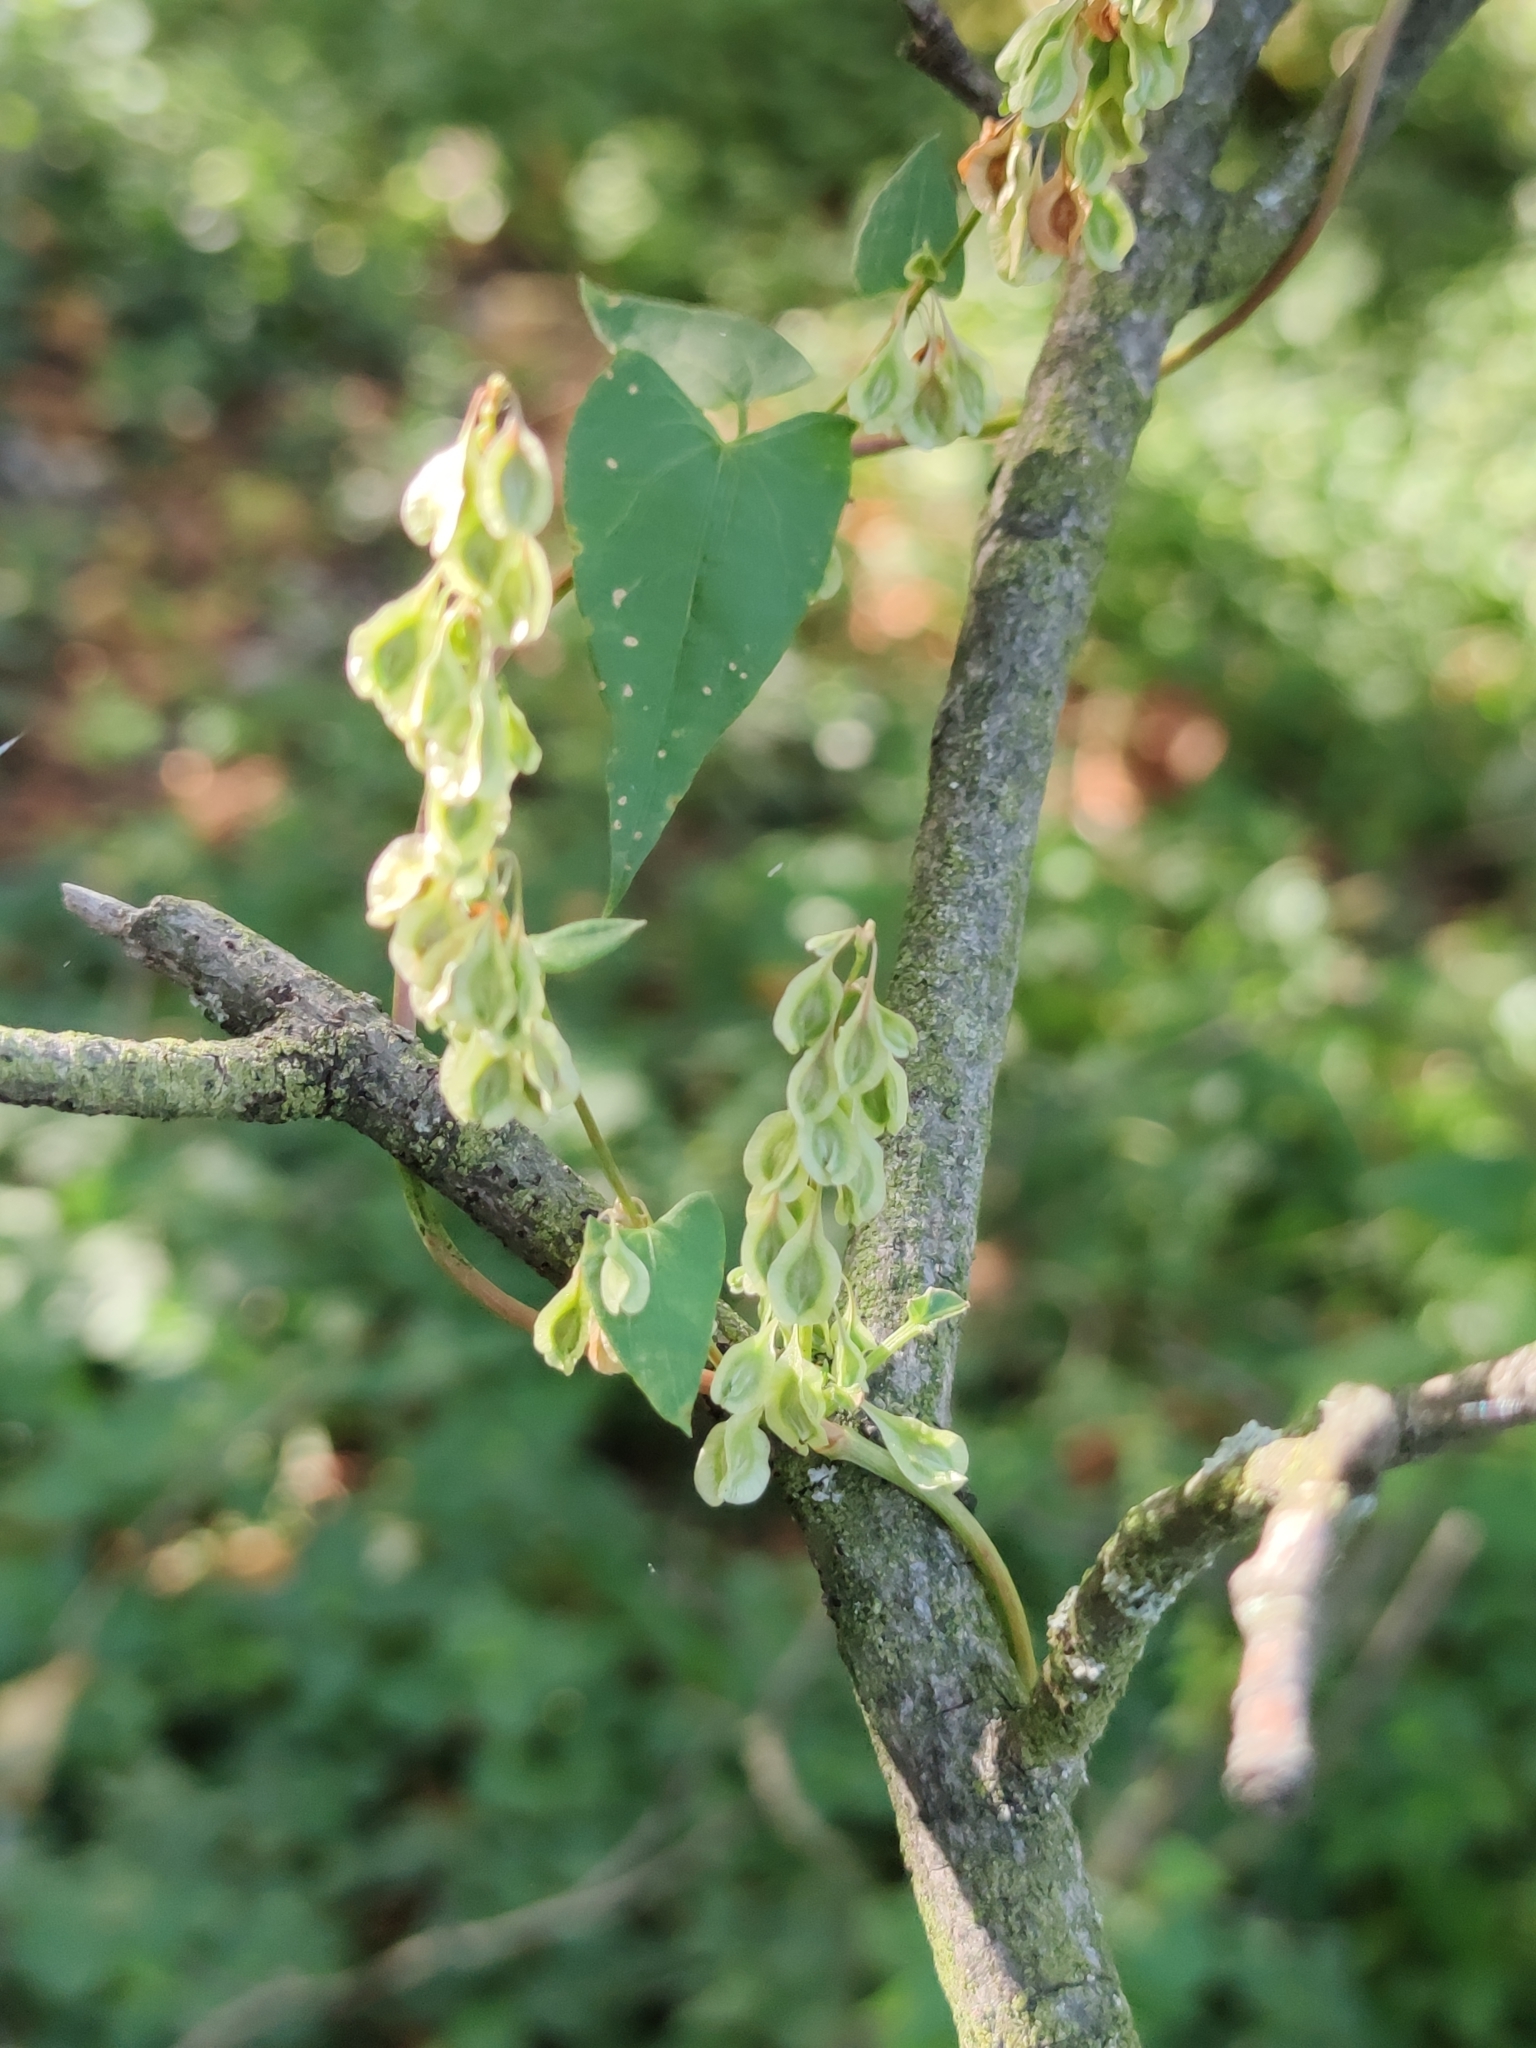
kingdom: Plantae
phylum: Tracheophyta
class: Magnoliopsida
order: Caryophyllales
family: Polygonaceae
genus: Fallopia
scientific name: Fallopia dumetorum
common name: Copse-bindweed
